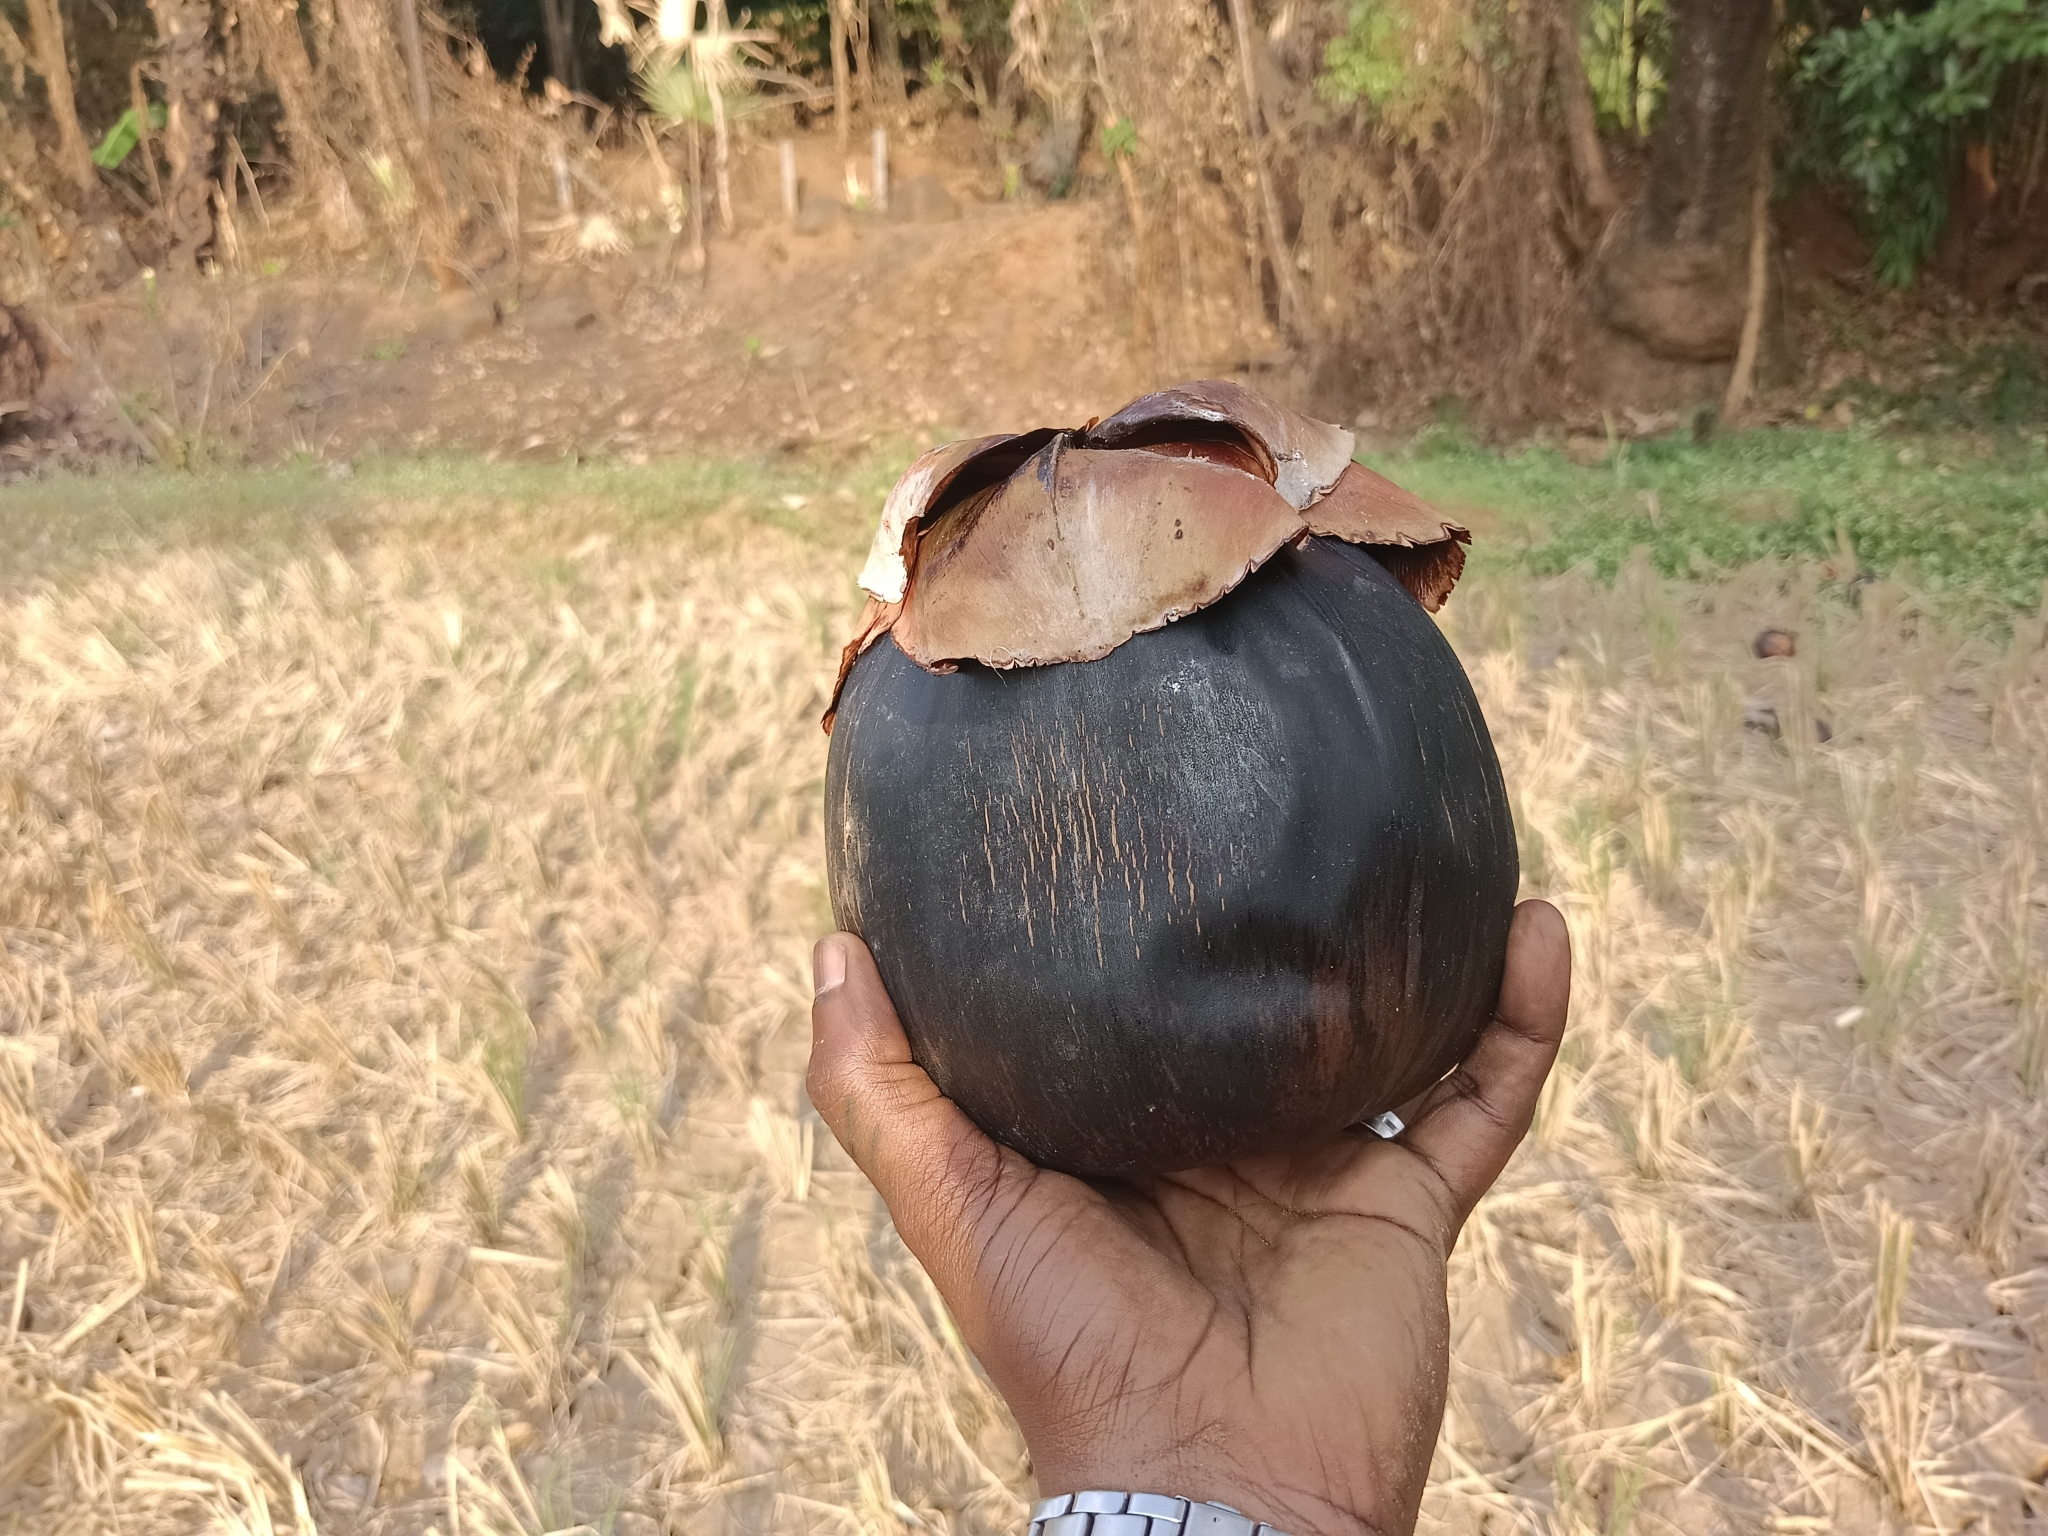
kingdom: Plantae
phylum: Tracheophyta
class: Liliopsida
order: Arecales
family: Arecaceae
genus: Borassus
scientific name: Borassus flabellifer
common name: Palmyra palm
